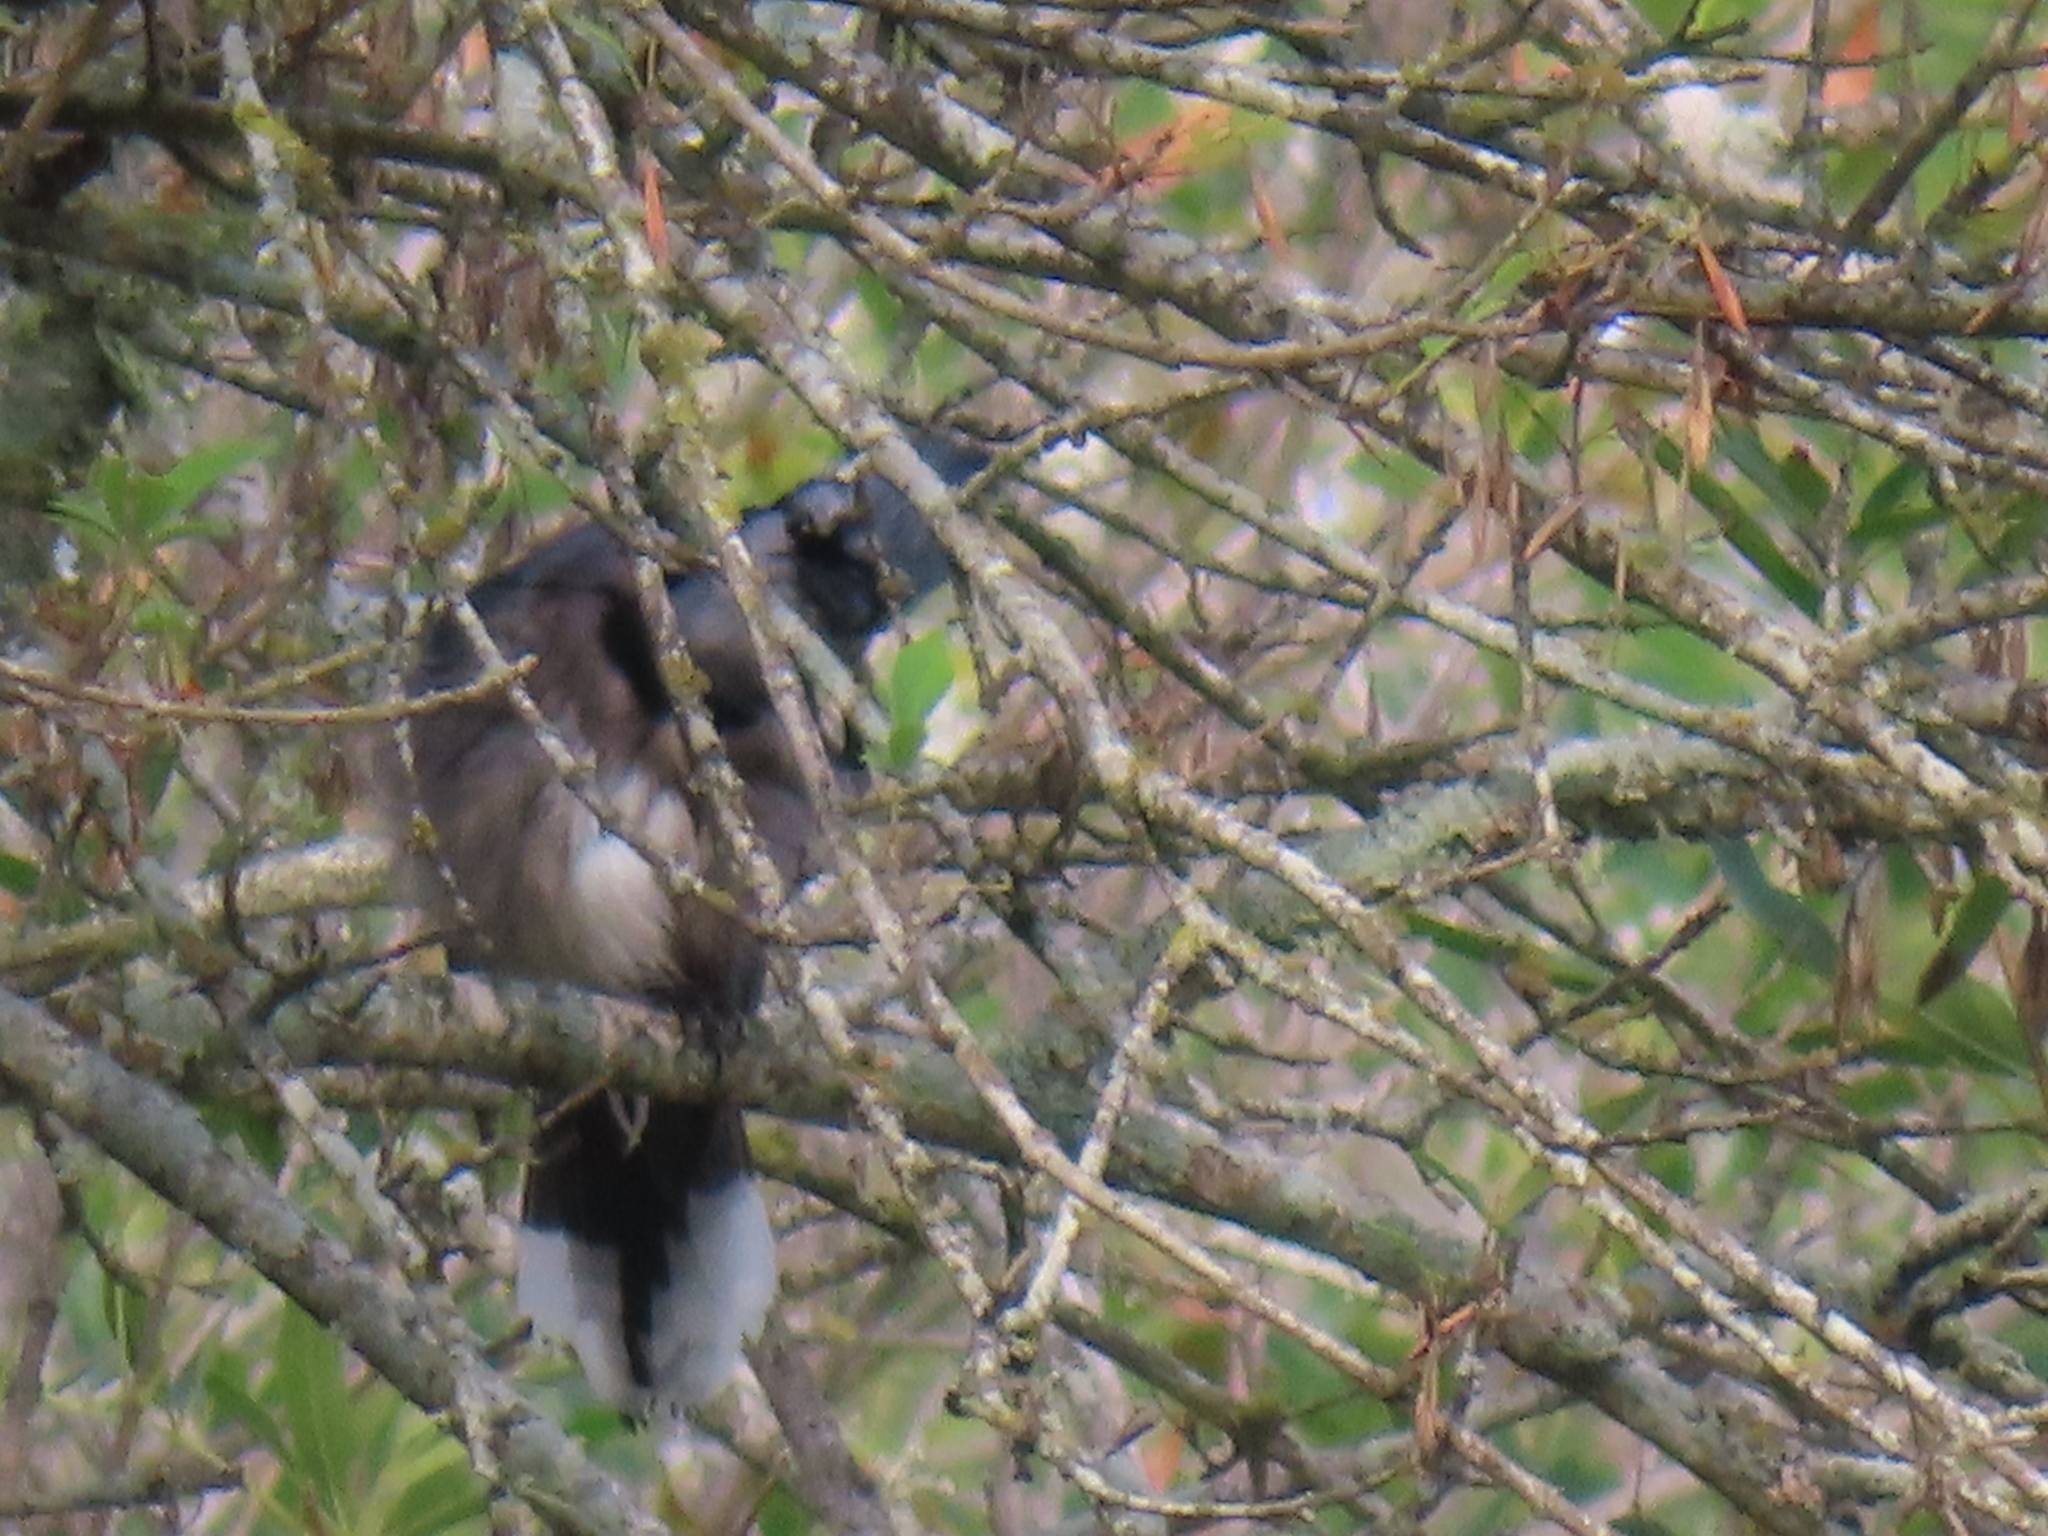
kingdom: Animalia
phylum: Chordata
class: Aves
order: Passeriformes
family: Corvidae
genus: Cyanocitta
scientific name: Cyanocitta cristata
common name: Blue jay
